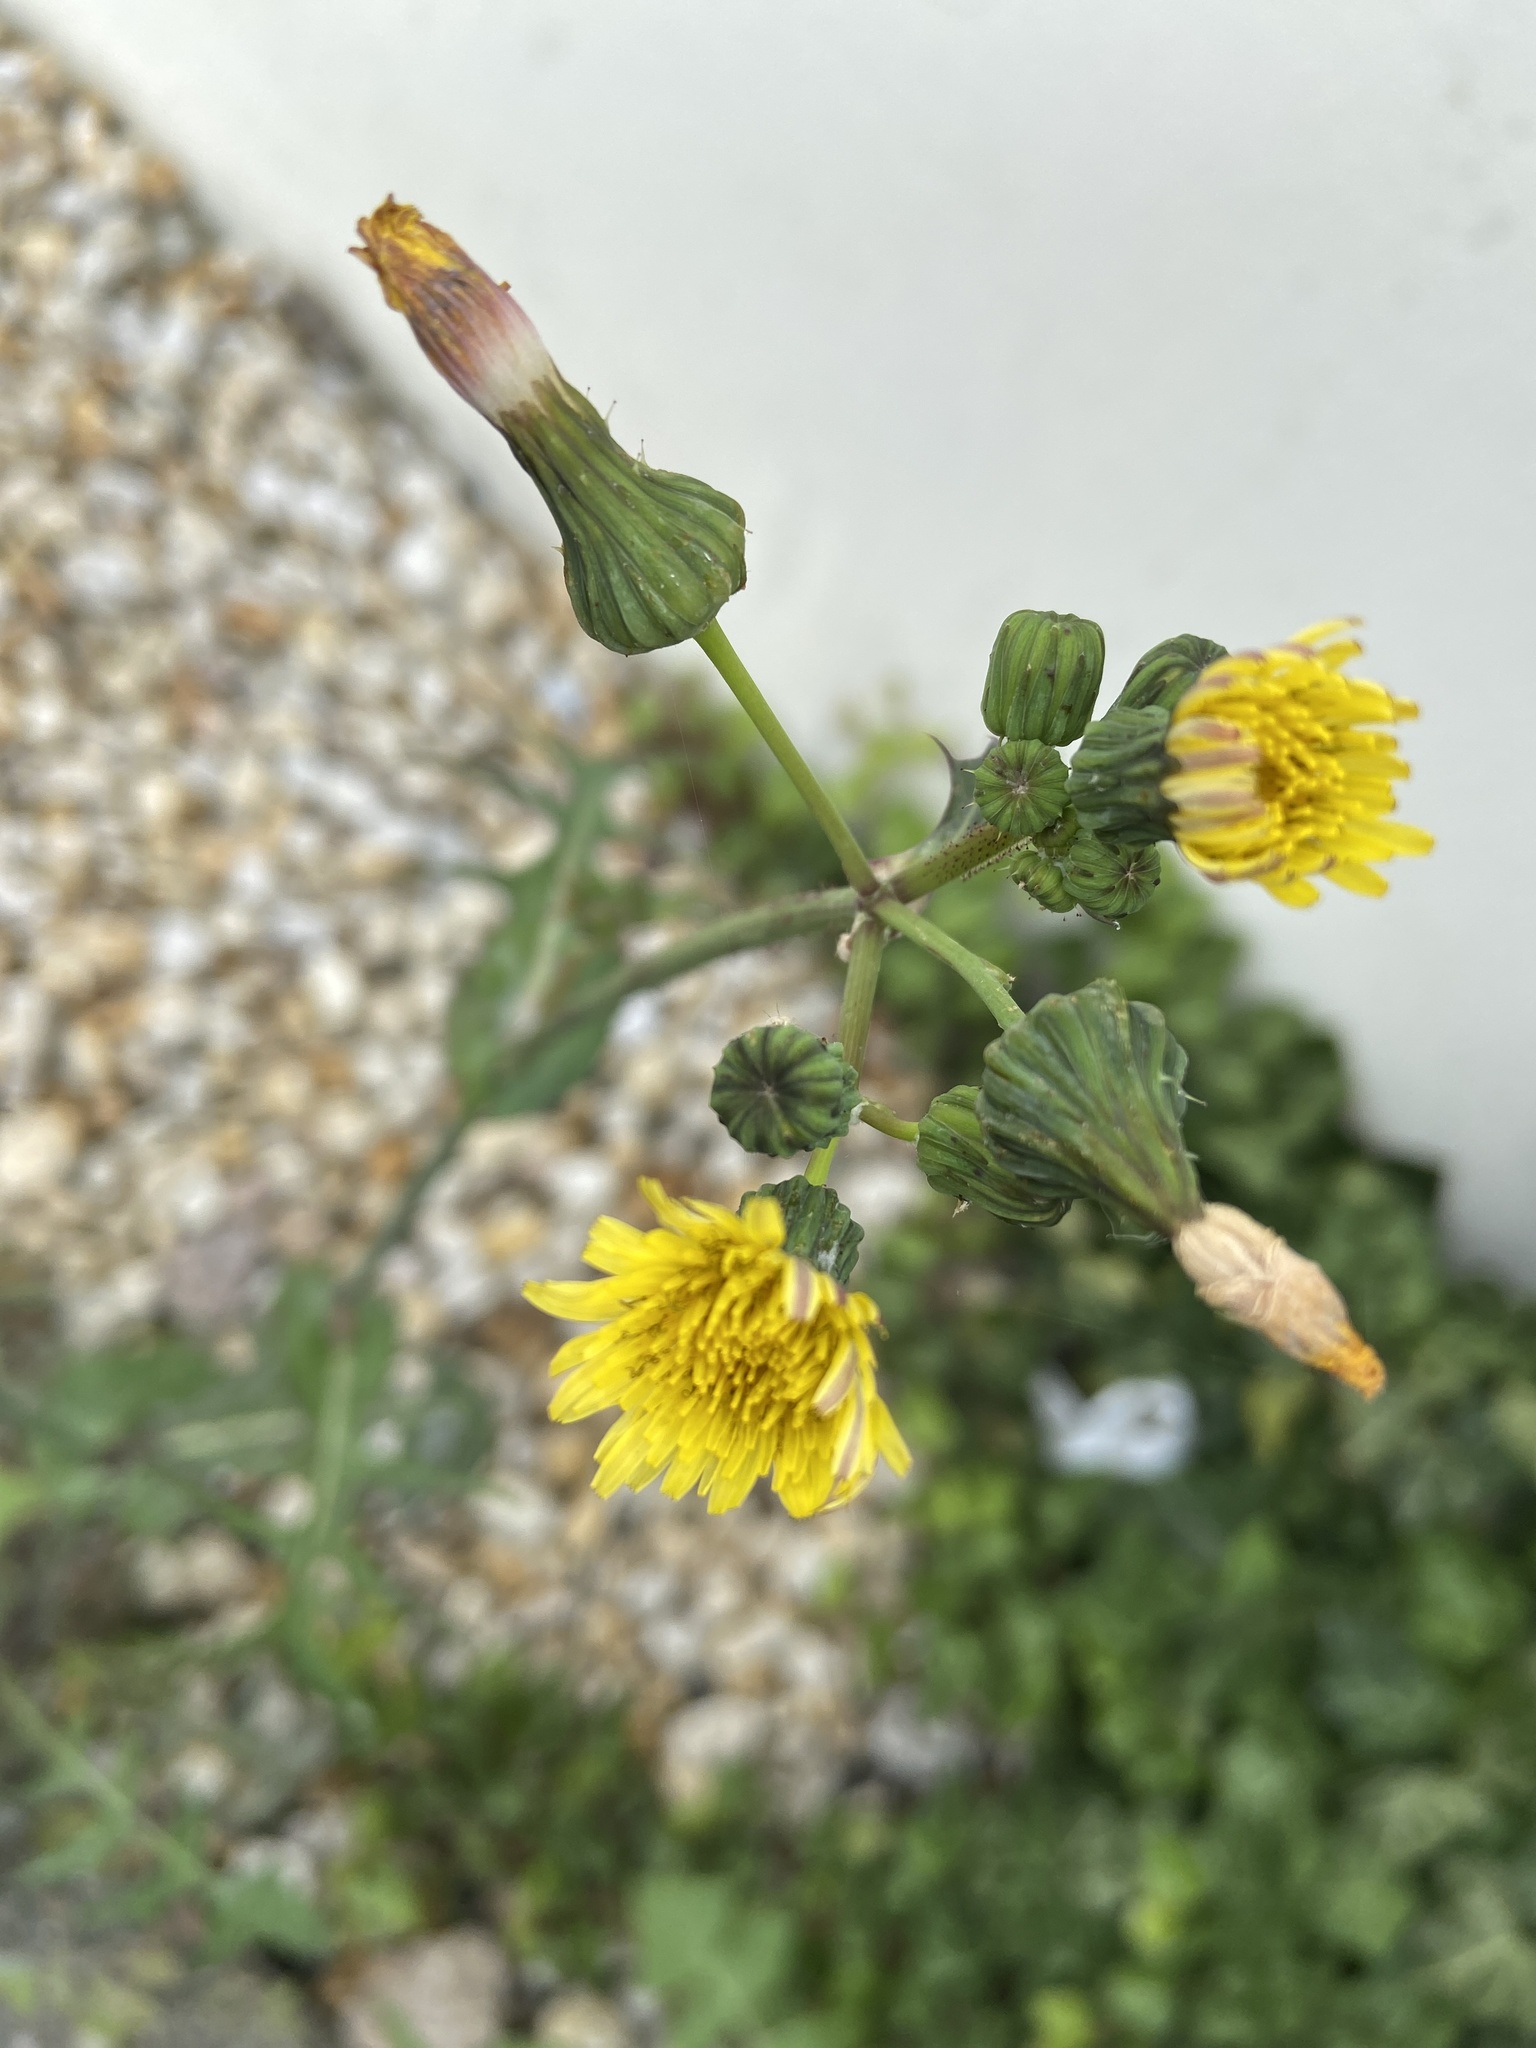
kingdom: Plantae
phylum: Tracheophyta
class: Magnoliopsida
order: Asterales
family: Asteraceae
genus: Sonchus
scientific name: Sonchus oleraceus
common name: Common sowthistle
